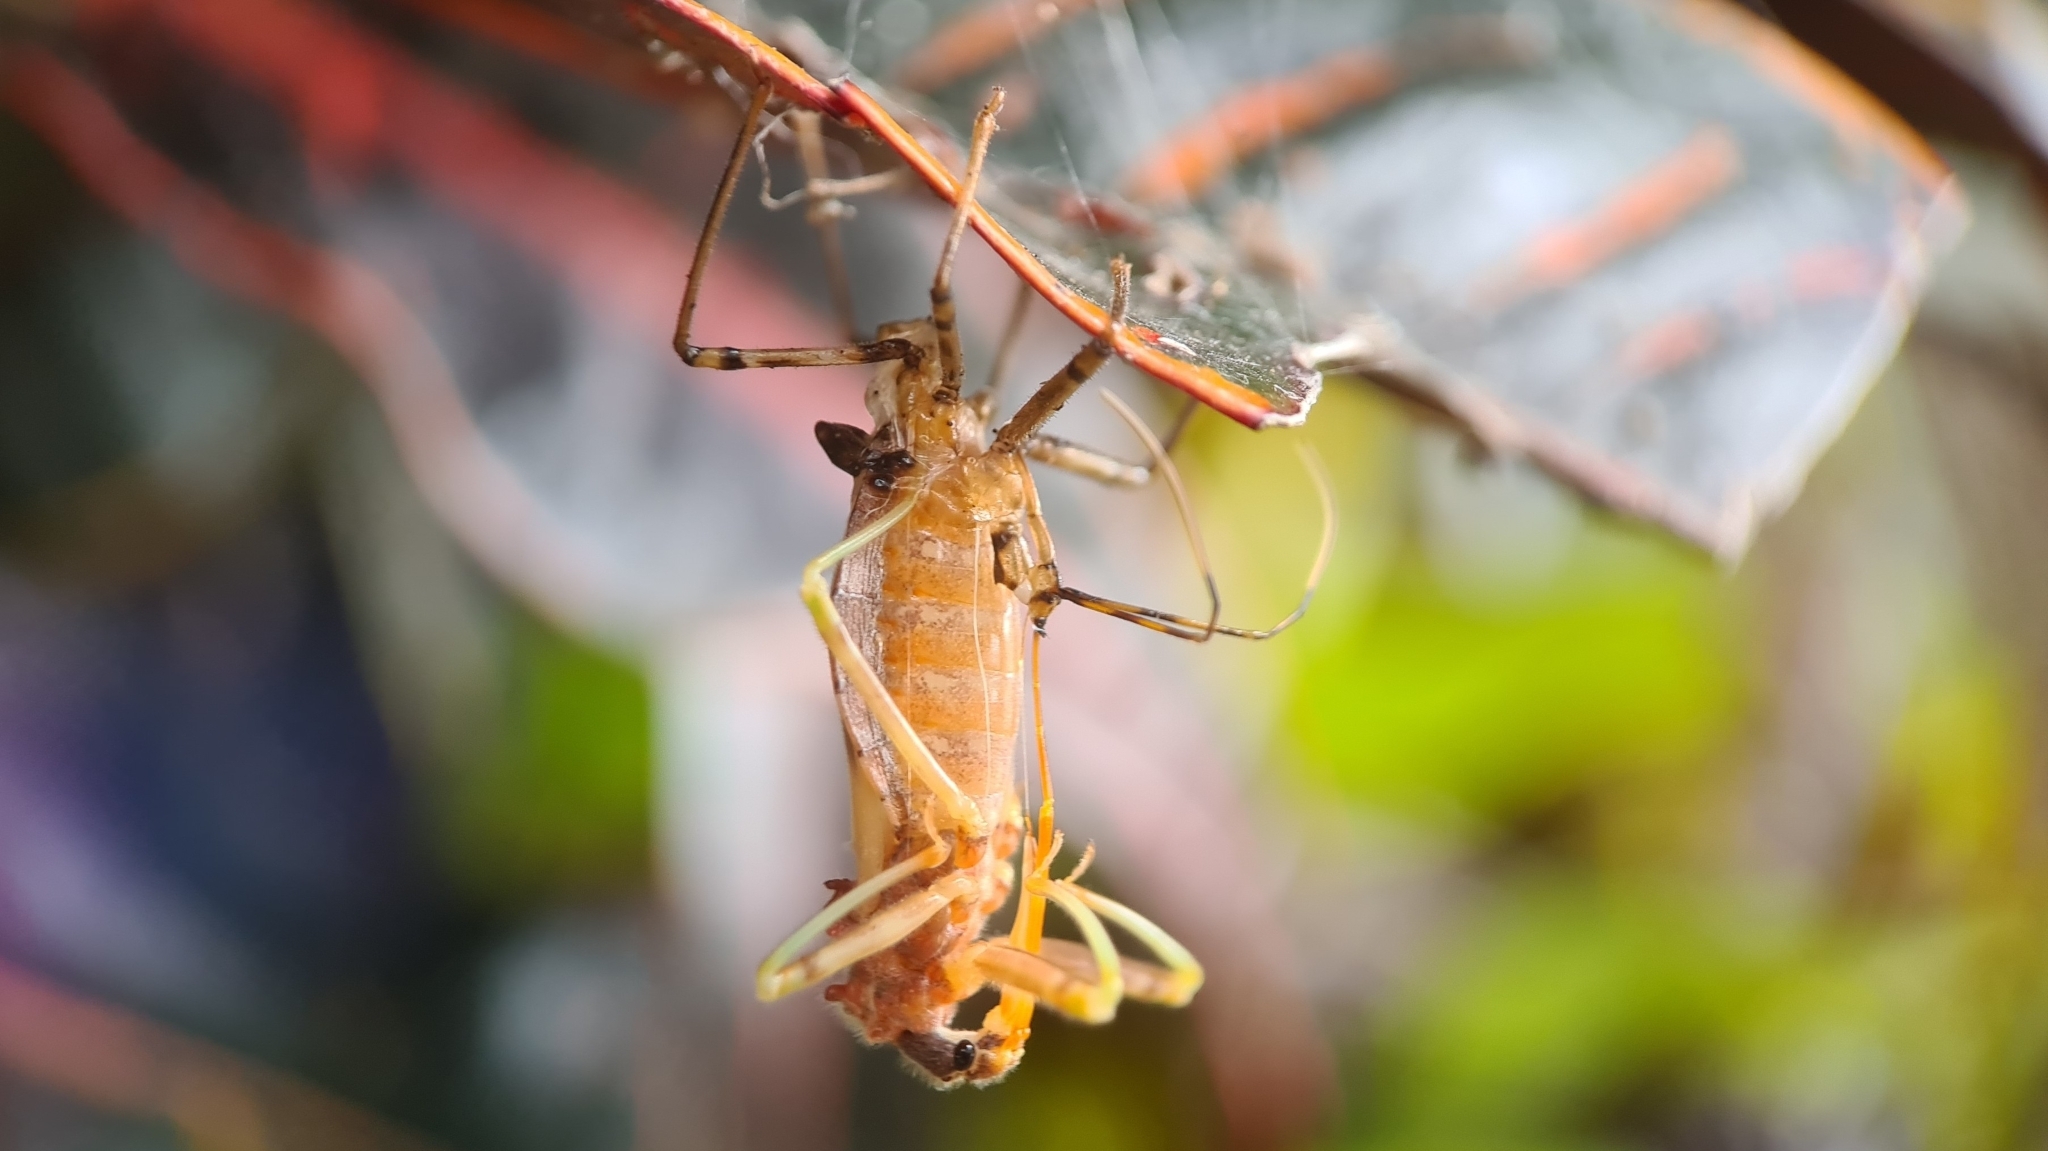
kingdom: Animalia
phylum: Arthropoda
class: Insecta
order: Hemiptera
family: Reduviidae
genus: Pristhesancus
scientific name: Pristhesancus plagipennis
